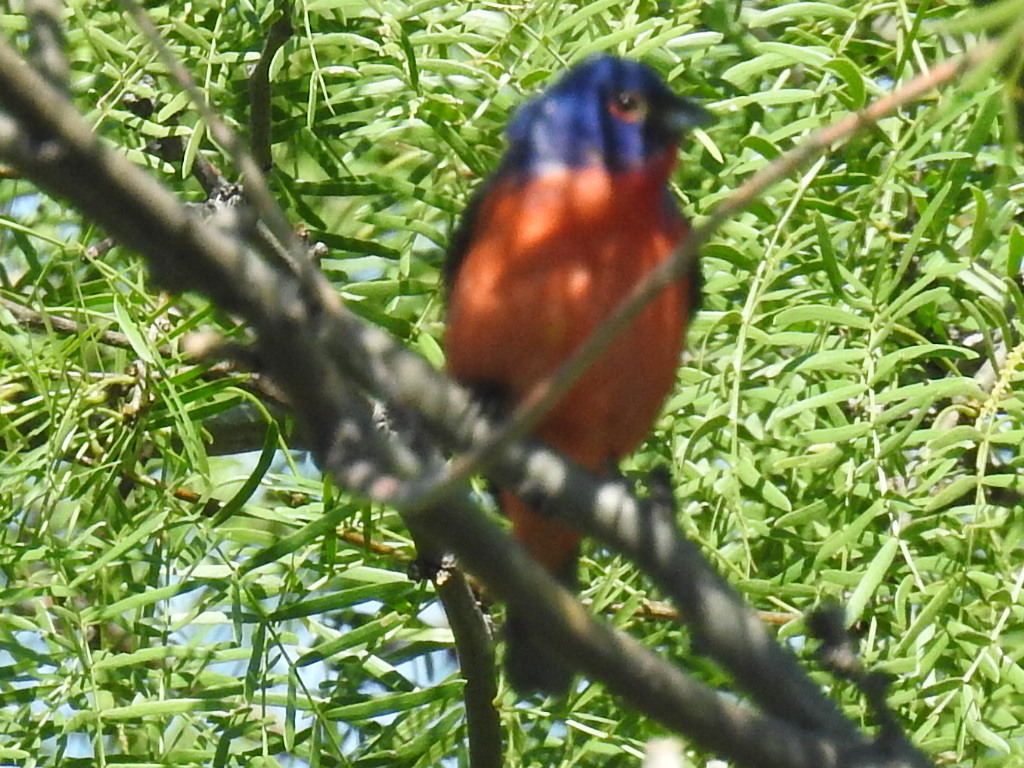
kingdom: Animalia
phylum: Chordata
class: Aves
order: Passeriformes
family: Cardinalidae
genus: Passerina
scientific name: Passerina ciris
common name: Painted bunting
